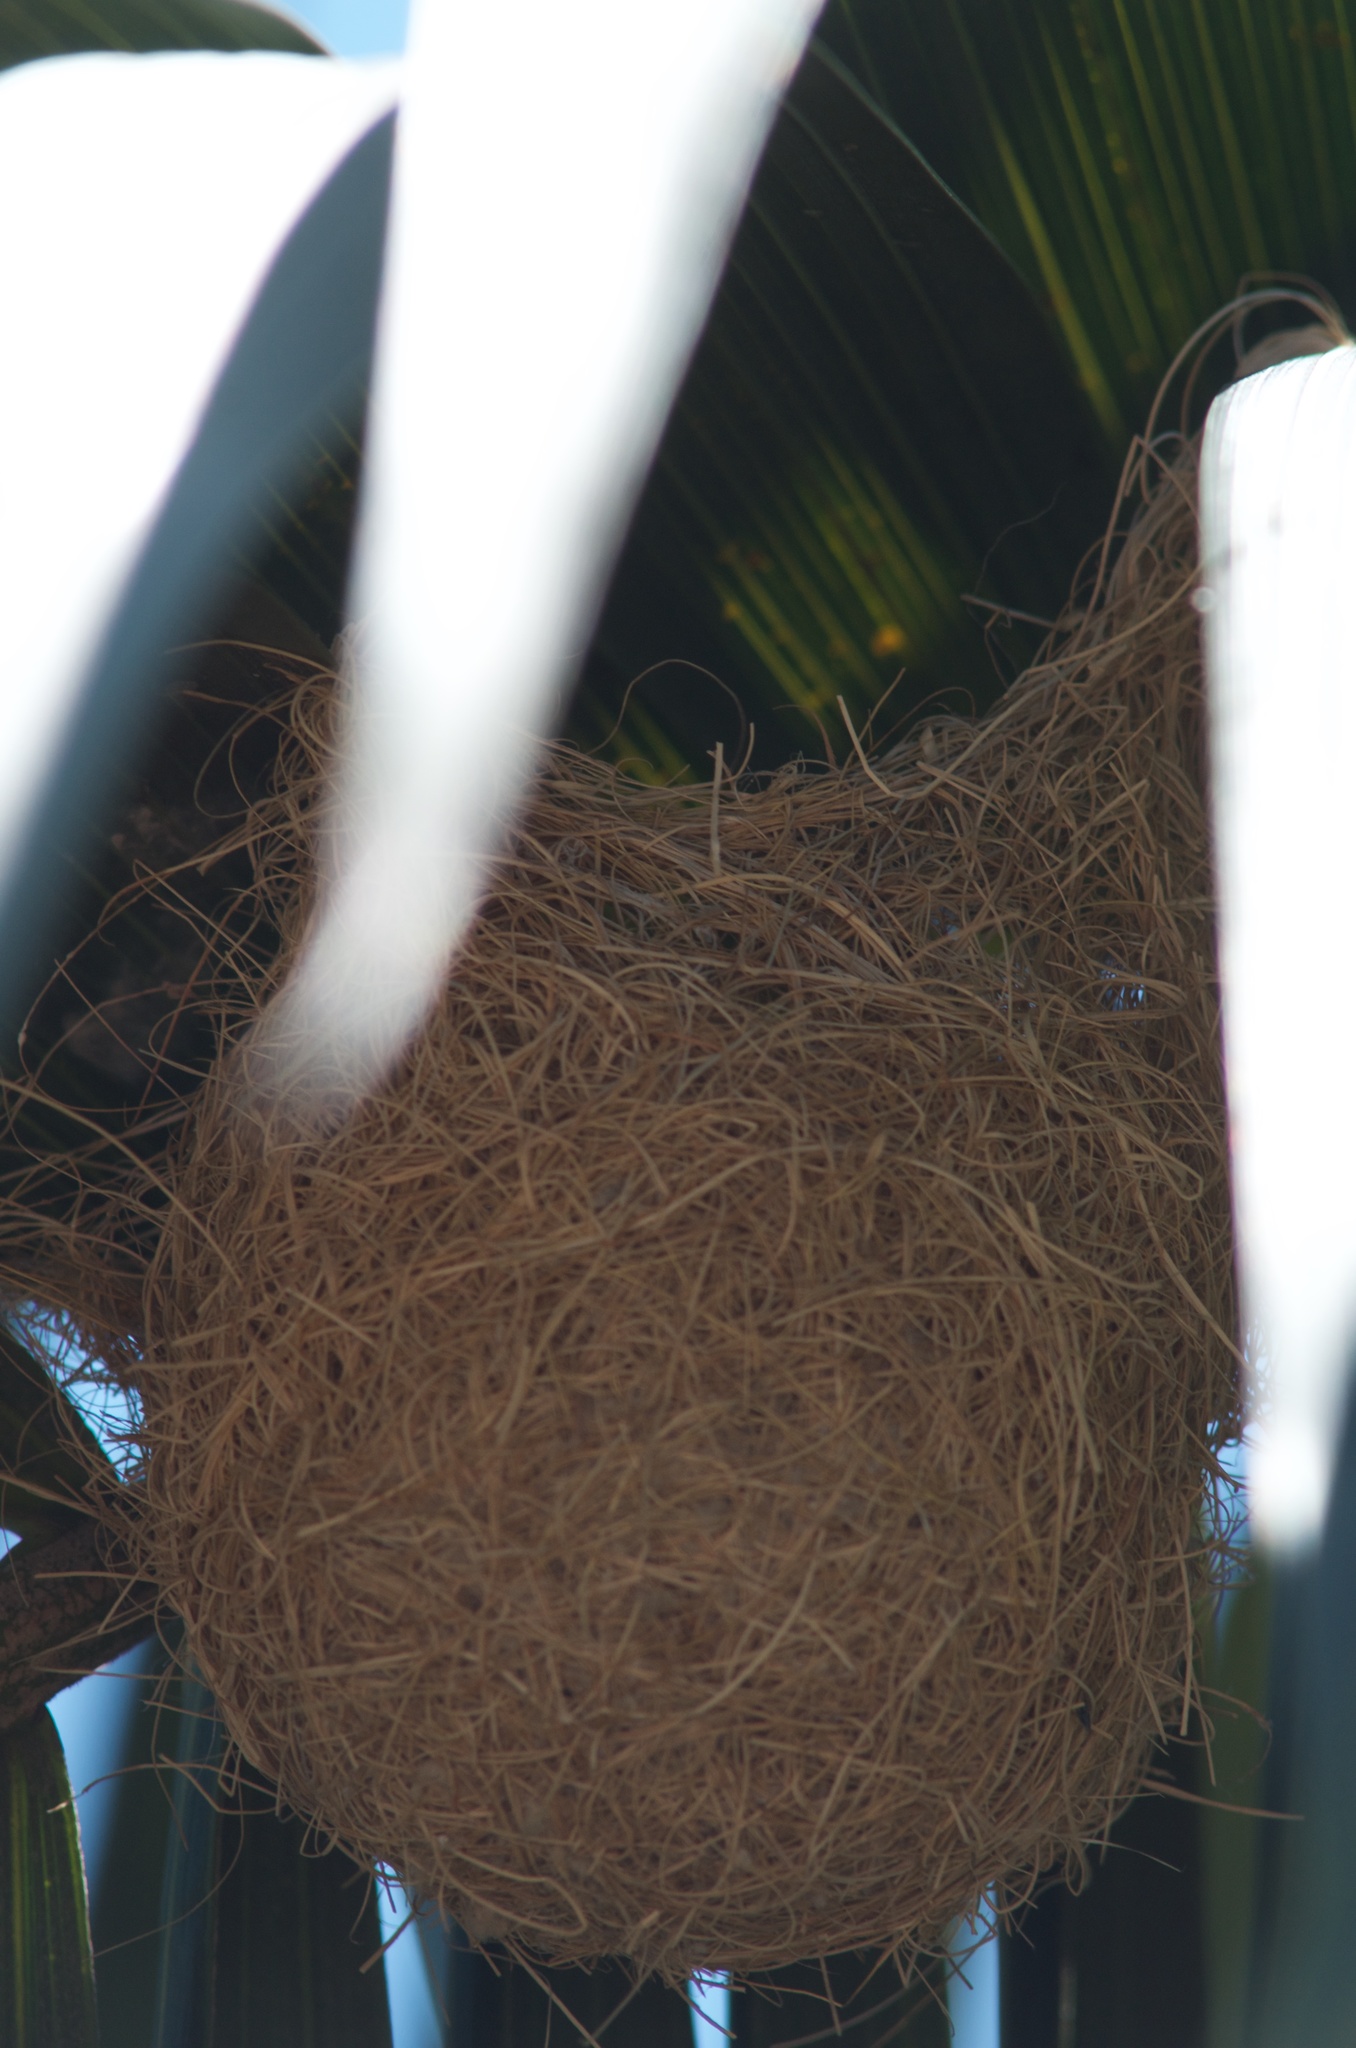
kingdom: Animalia
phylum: Chordata
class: Aves
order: Passeriformes
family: Icteridae
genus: Icterus
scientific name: Icterus cucullatus
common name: Hooded oriole
